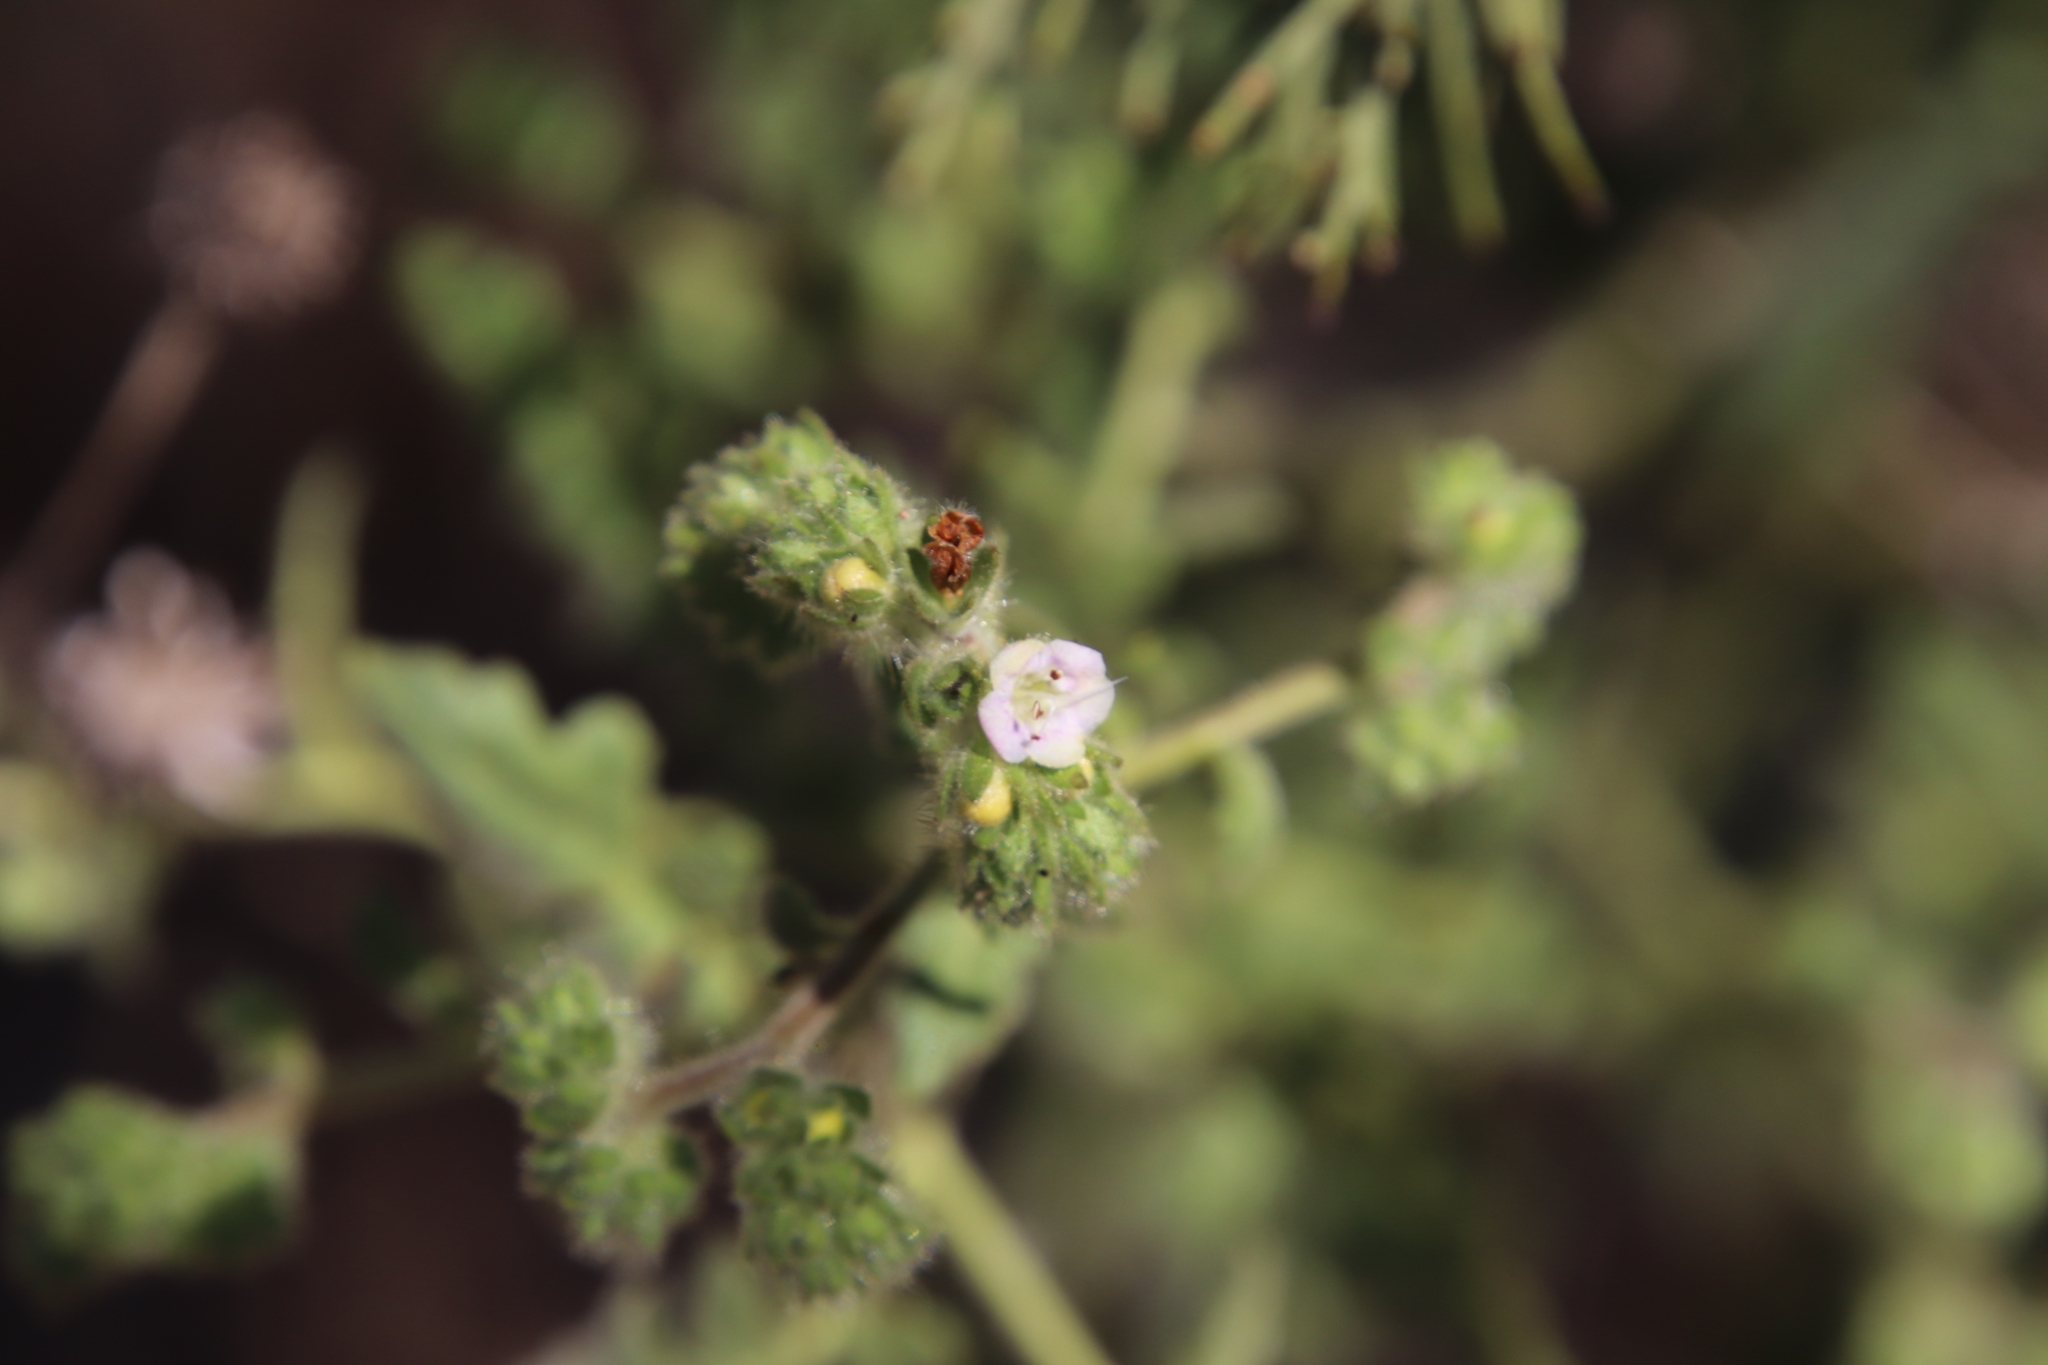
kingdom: Plantae
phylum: Tracheophyta
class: Magnoliopsida
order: Boraginales
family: Hydrophyllaceae
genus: Phacelia
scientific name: Phacelia ramosissima
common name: Branching phacelia
